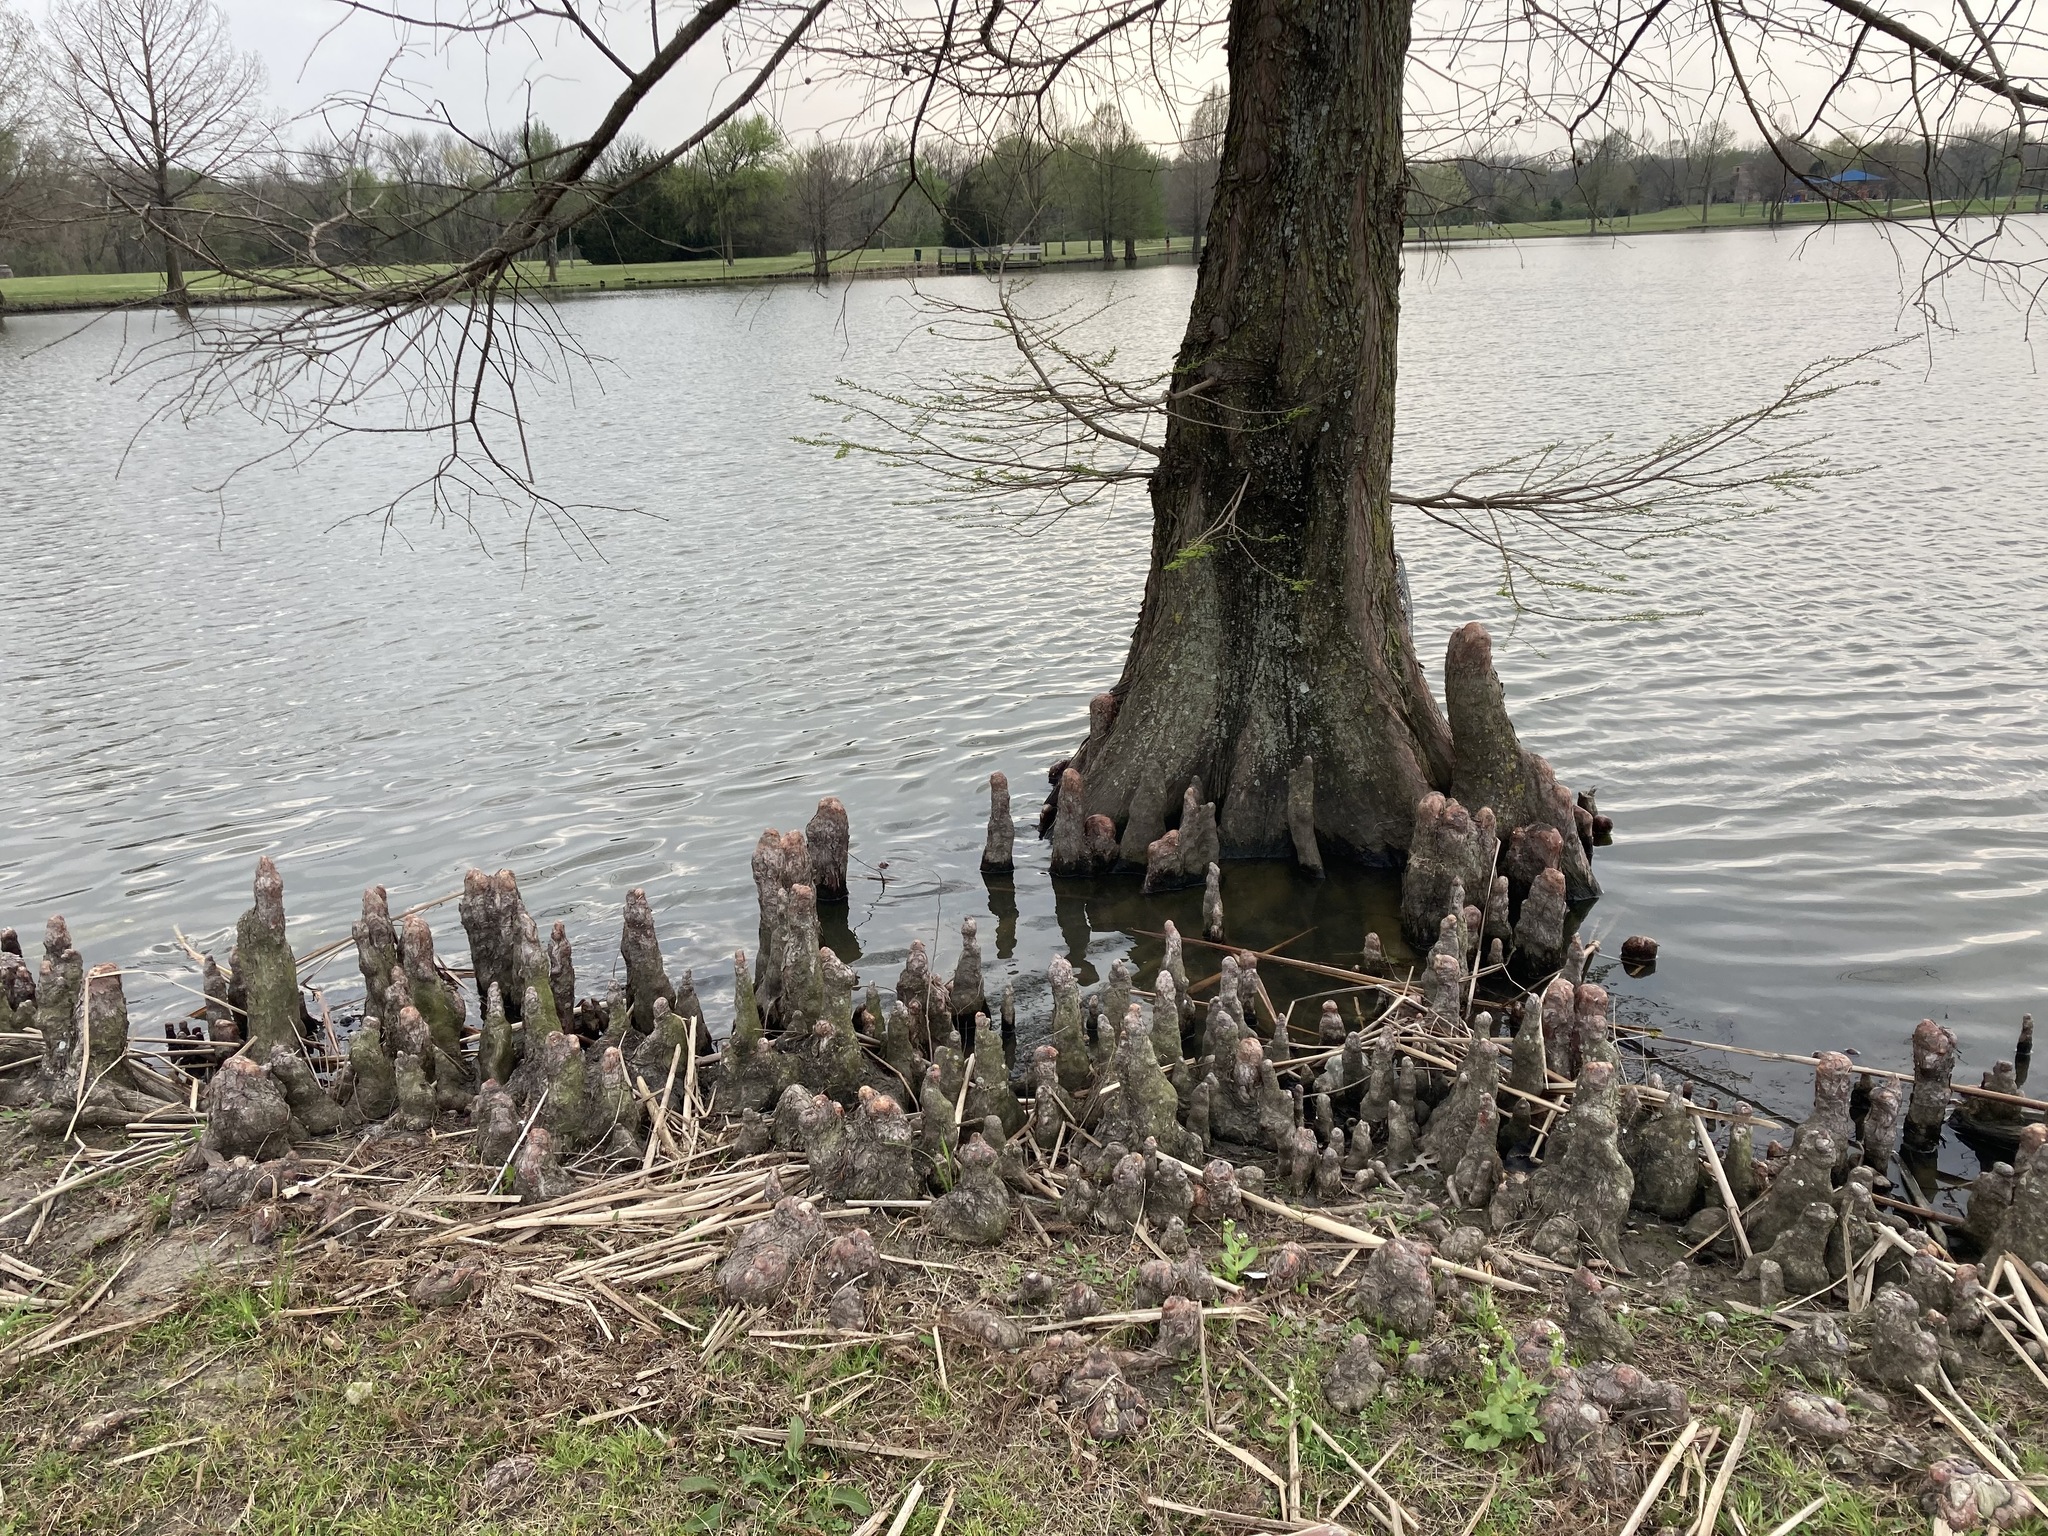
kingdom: Plantae
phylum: Tracheophyta
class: Pinopsida
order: Pinales
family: Cupressaceae
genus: Taxodium
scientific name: Taxodium distichum
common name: Bald cypress
